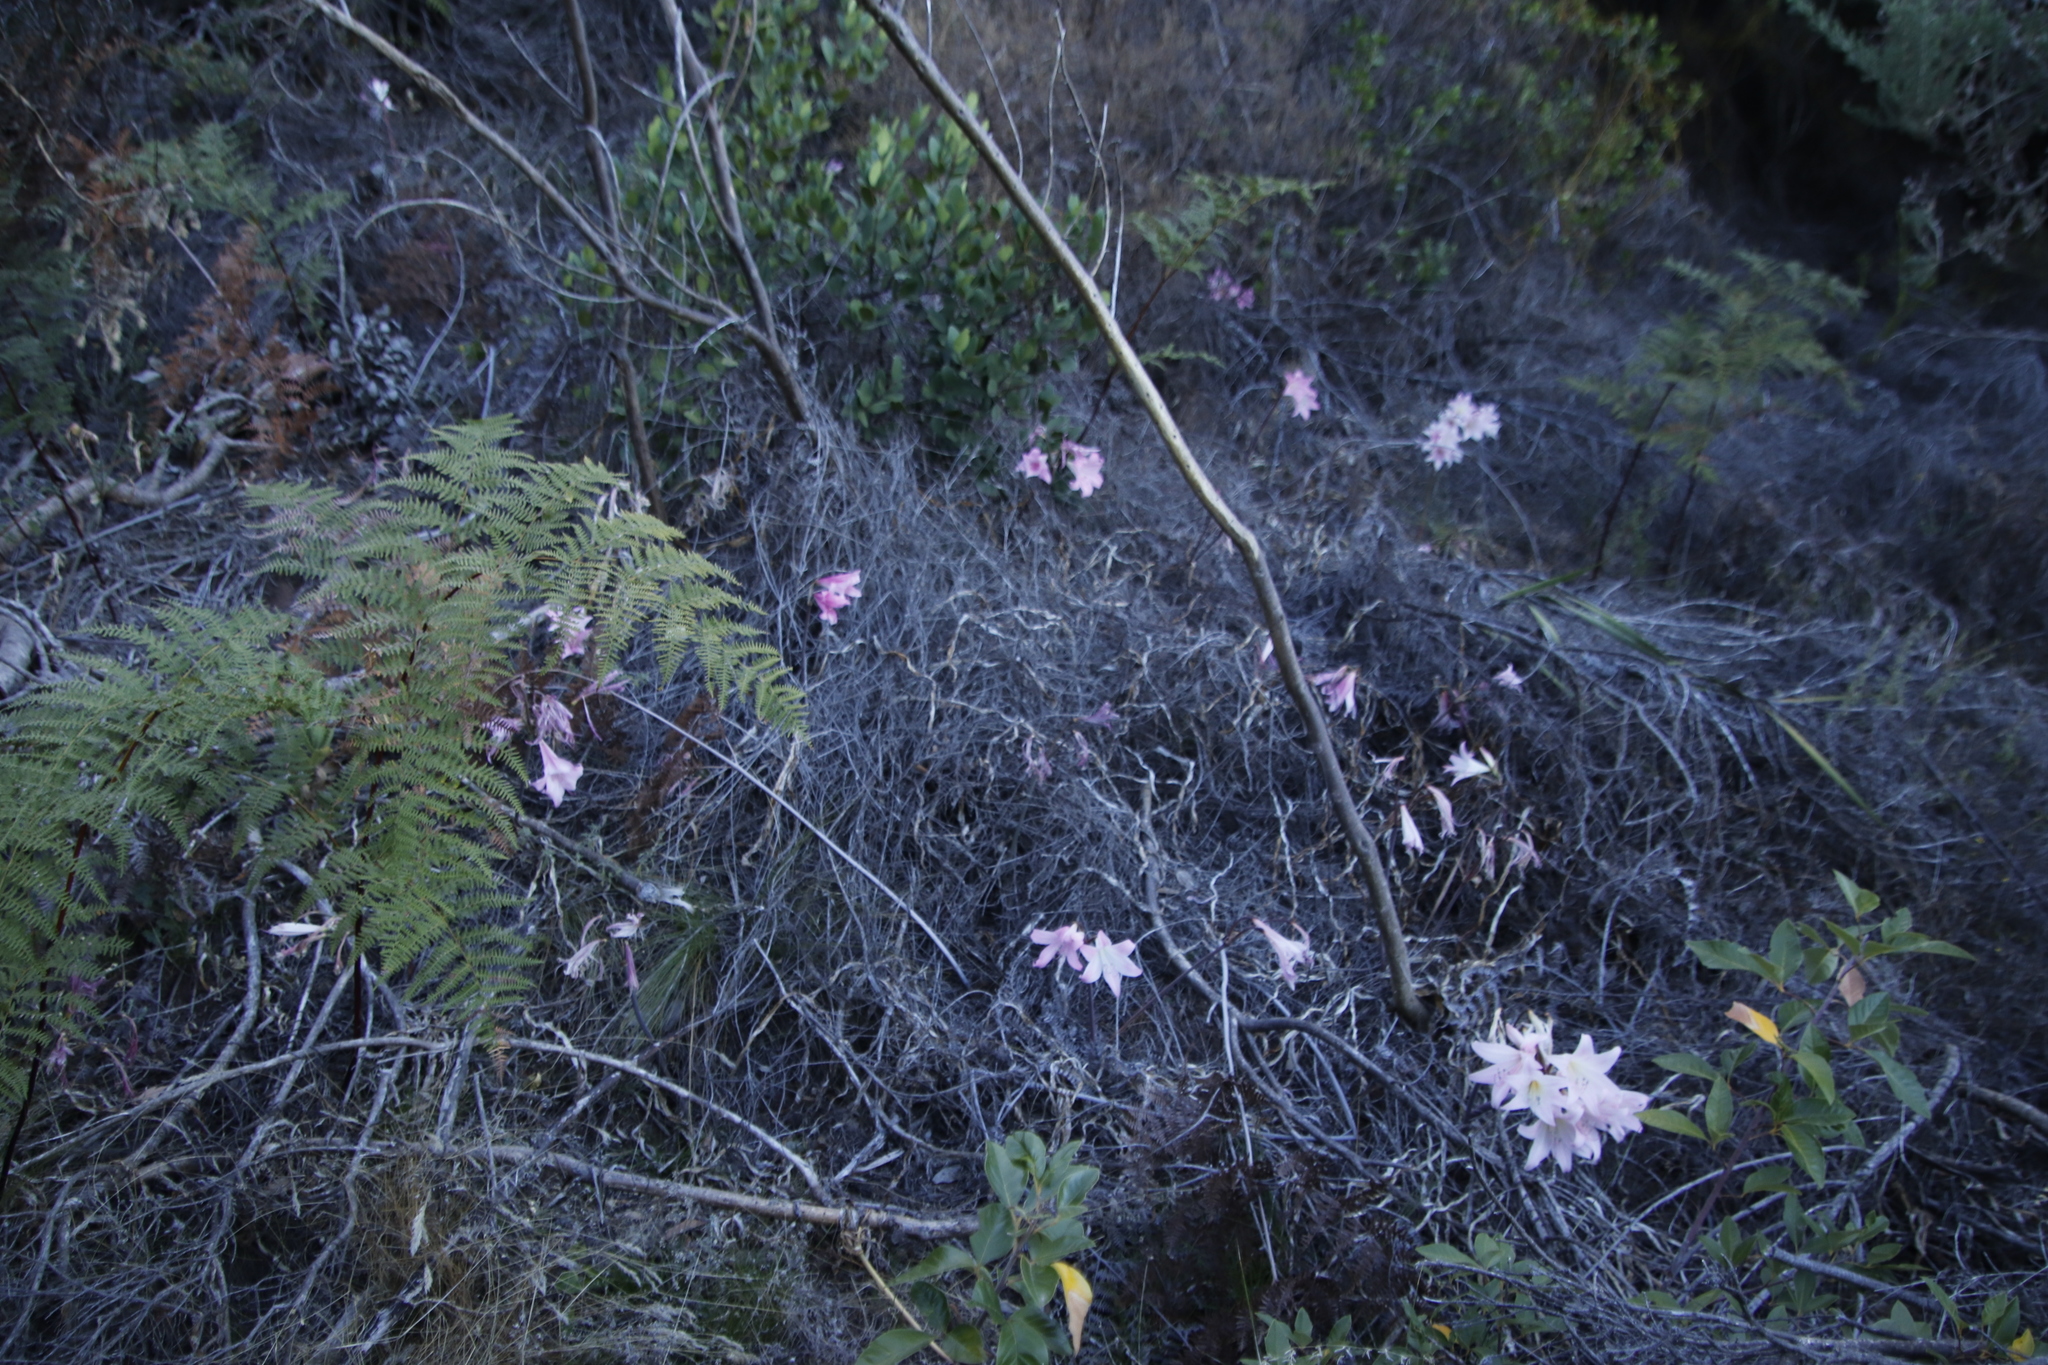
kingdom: Plantae
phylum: Tracheophyta
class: Liliopsida
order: Asparagales
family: Amaryllidaceae
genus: Amaryllis
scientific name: Amaryllis belladonna
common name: Jersey lily
